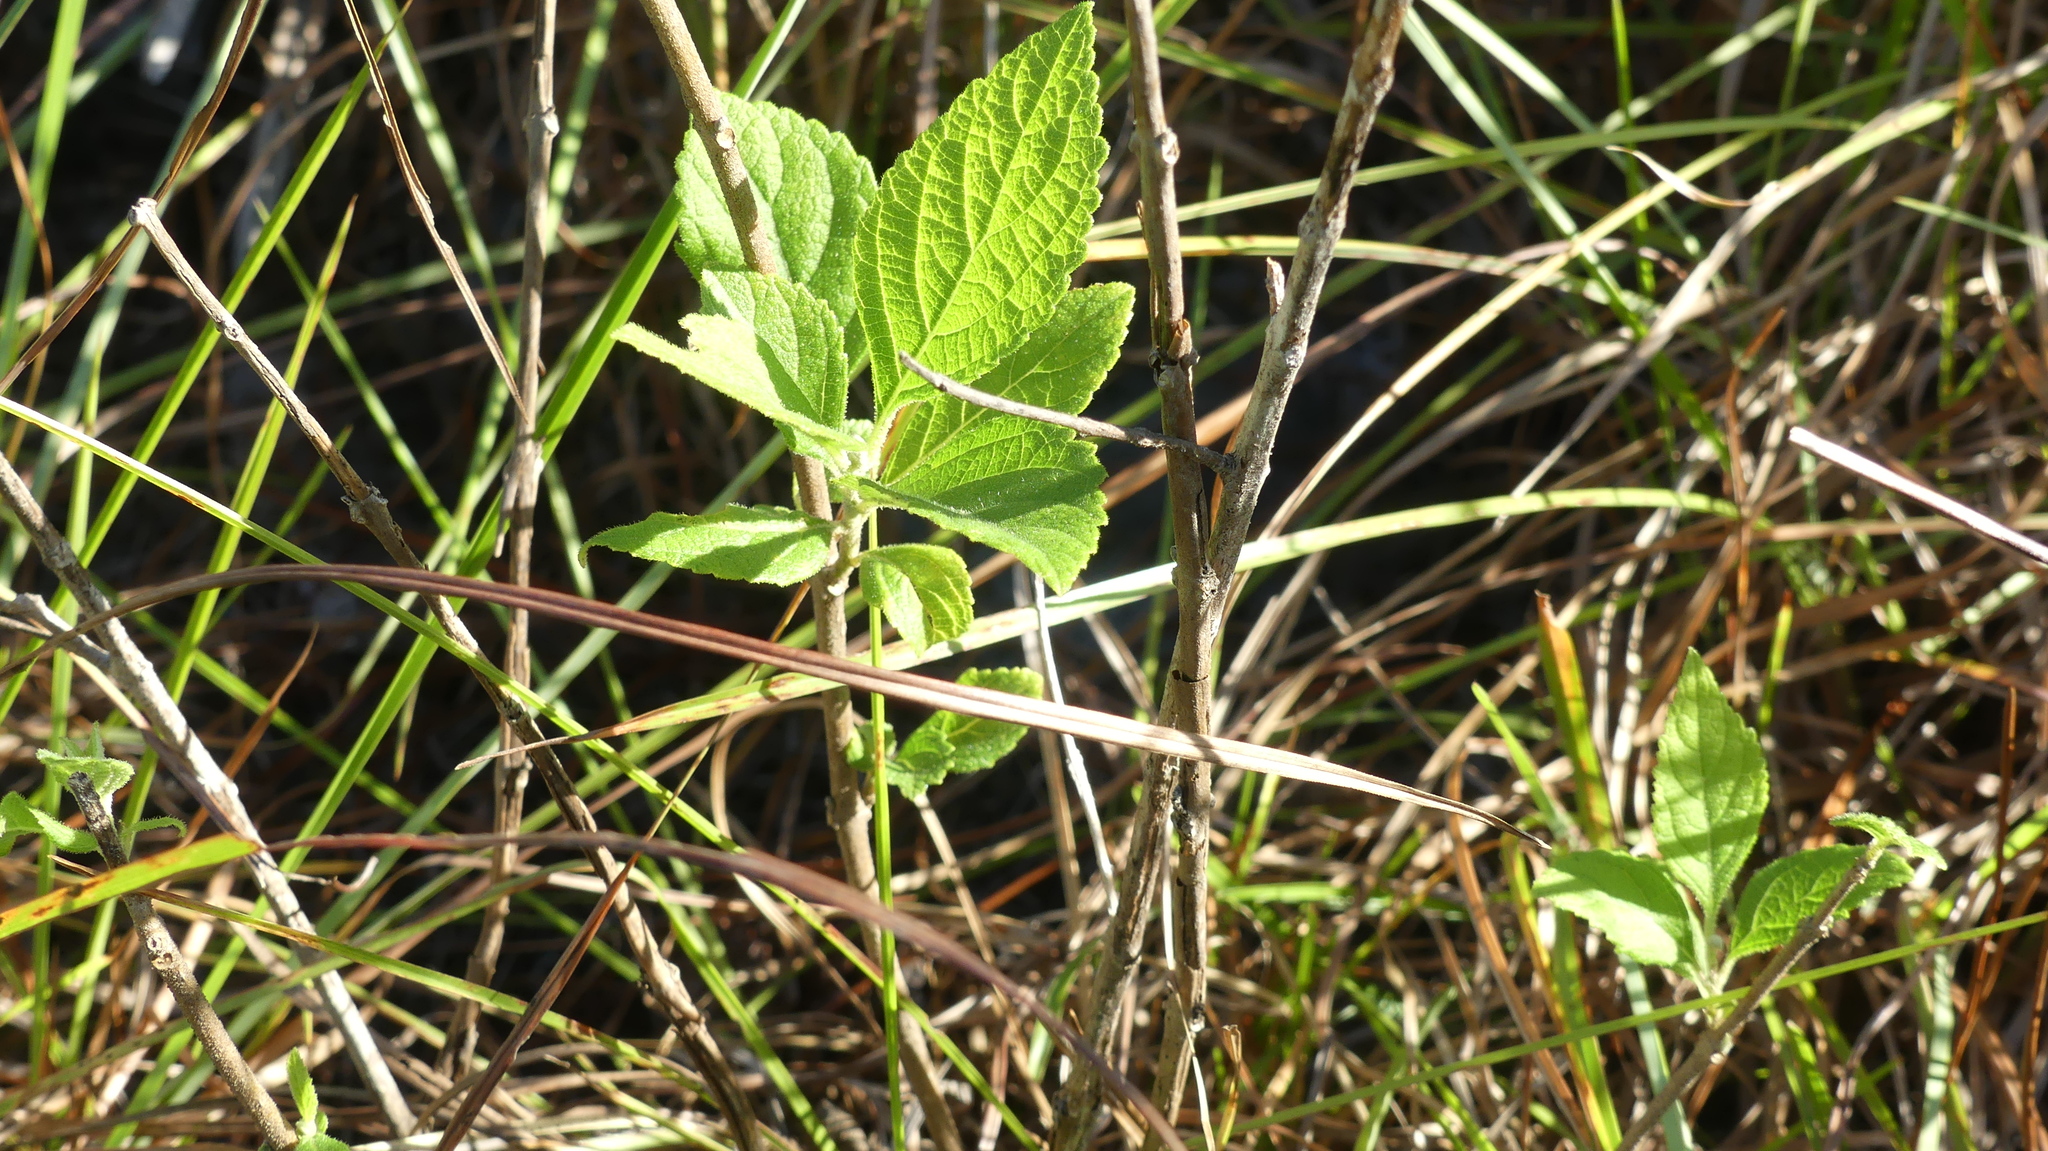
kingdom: Plantae
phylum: Tracheophyta
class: Magnoliopsida
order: Lamiales
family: Lamiaceae
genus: Callicarpa
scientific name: Callicarpa americana
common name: American beautyberry
